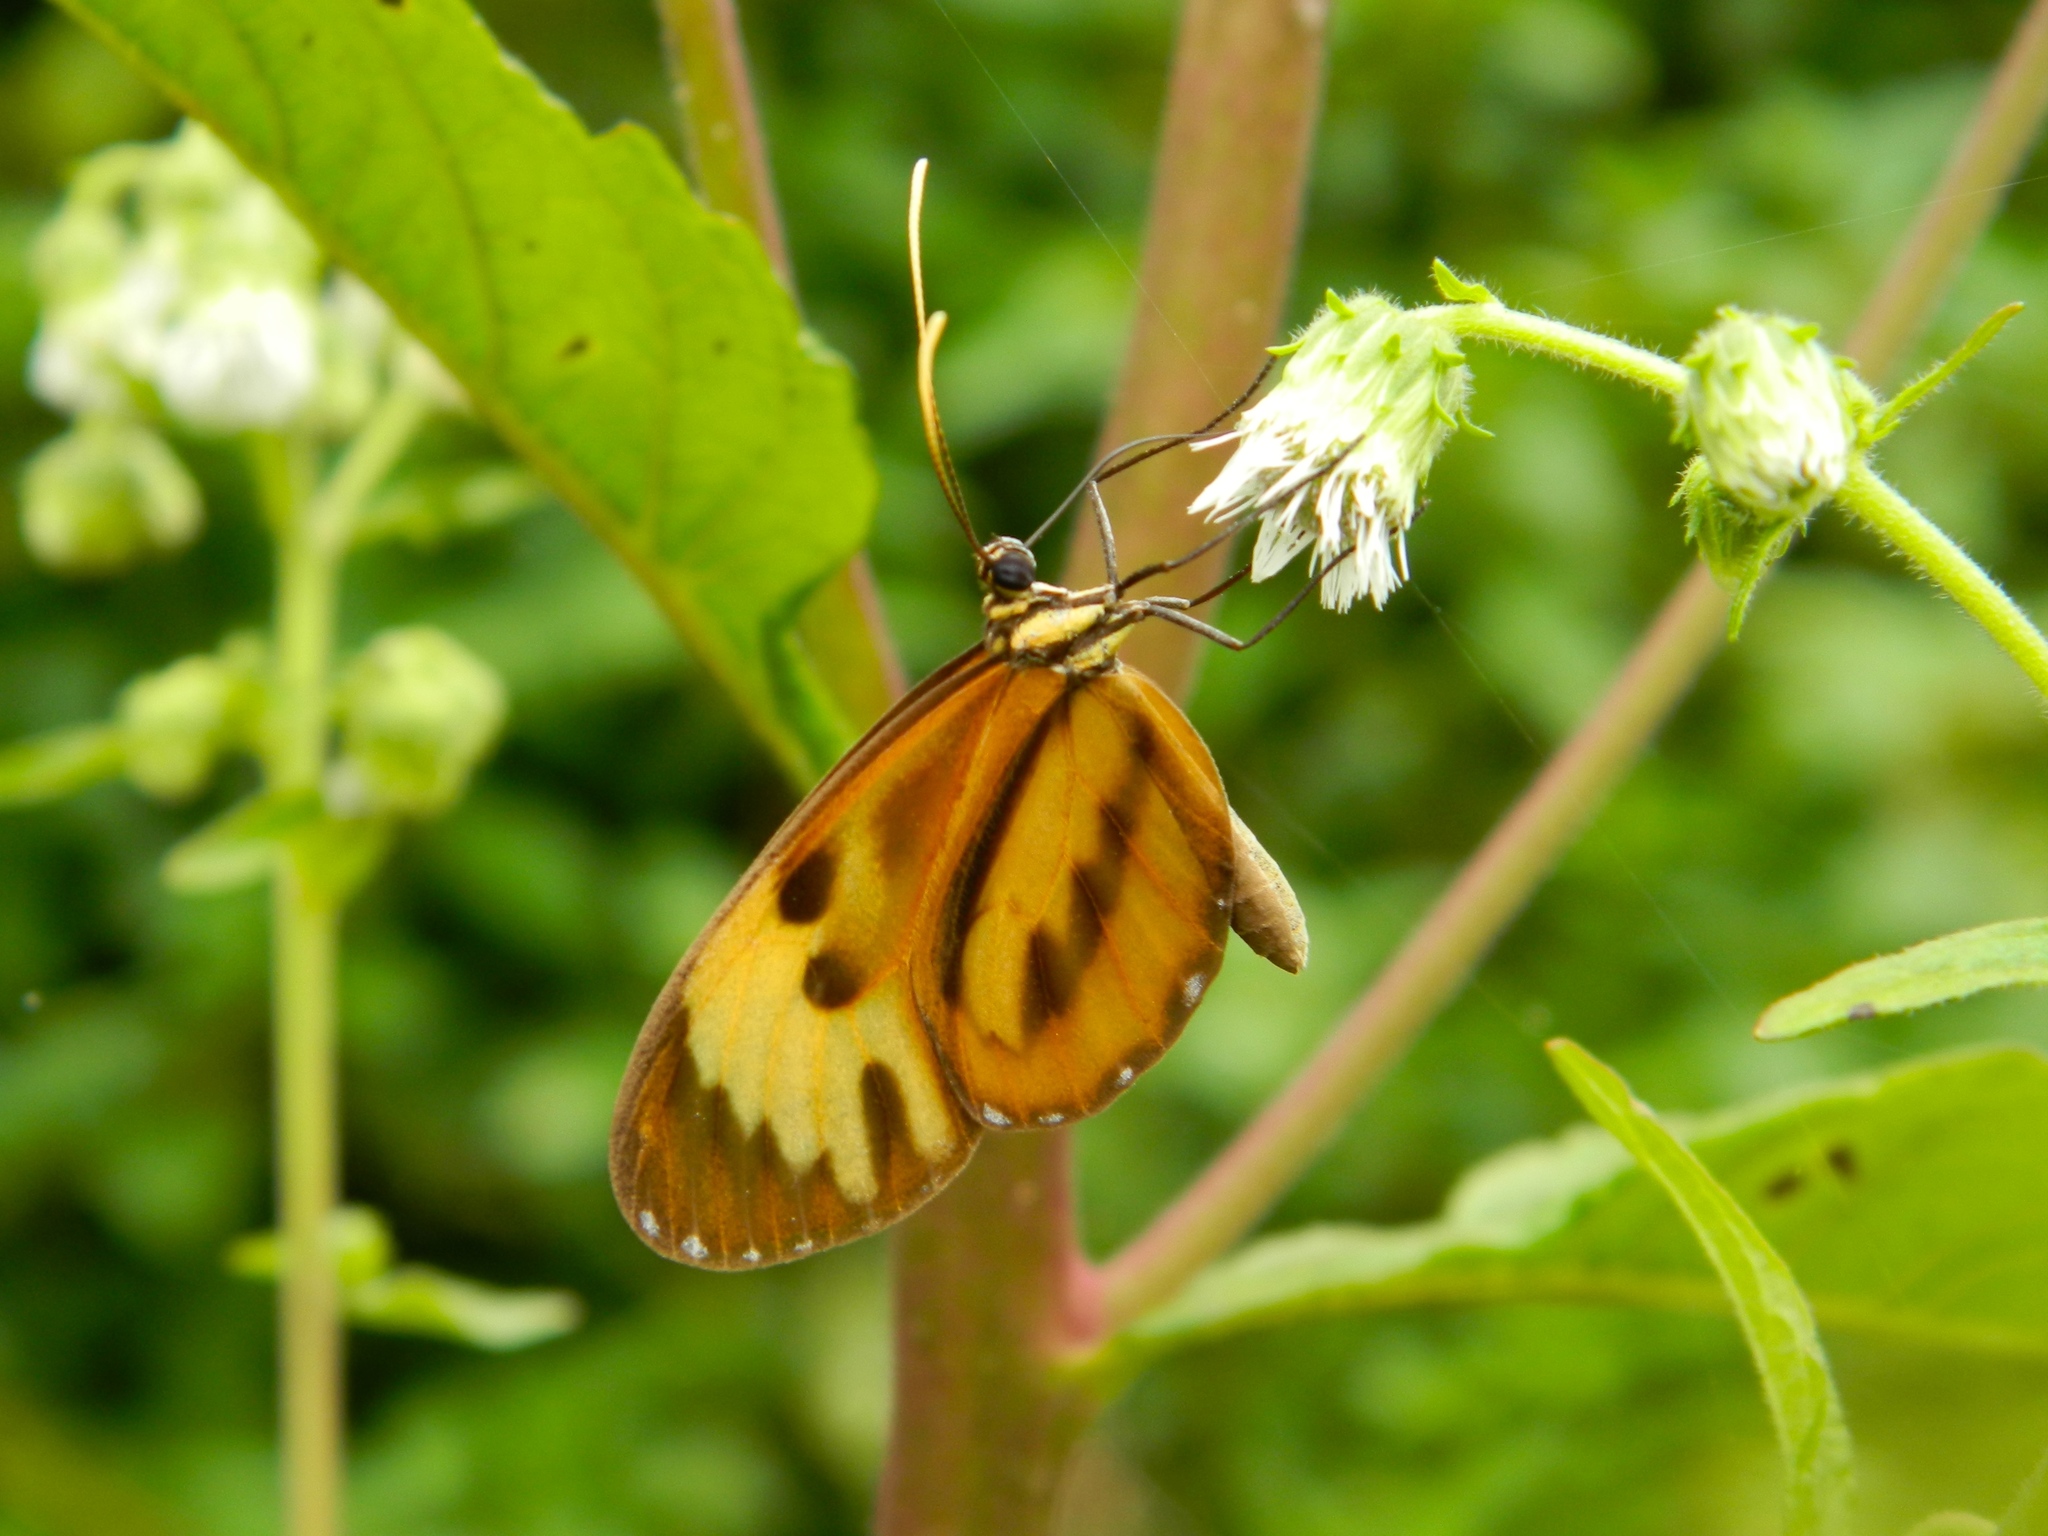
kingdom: Animalia
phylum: Arthropoda
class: Insecta
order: Lepidoptera
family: Nymphalidae
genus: Ceratinia
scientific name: Ceratinia neso
